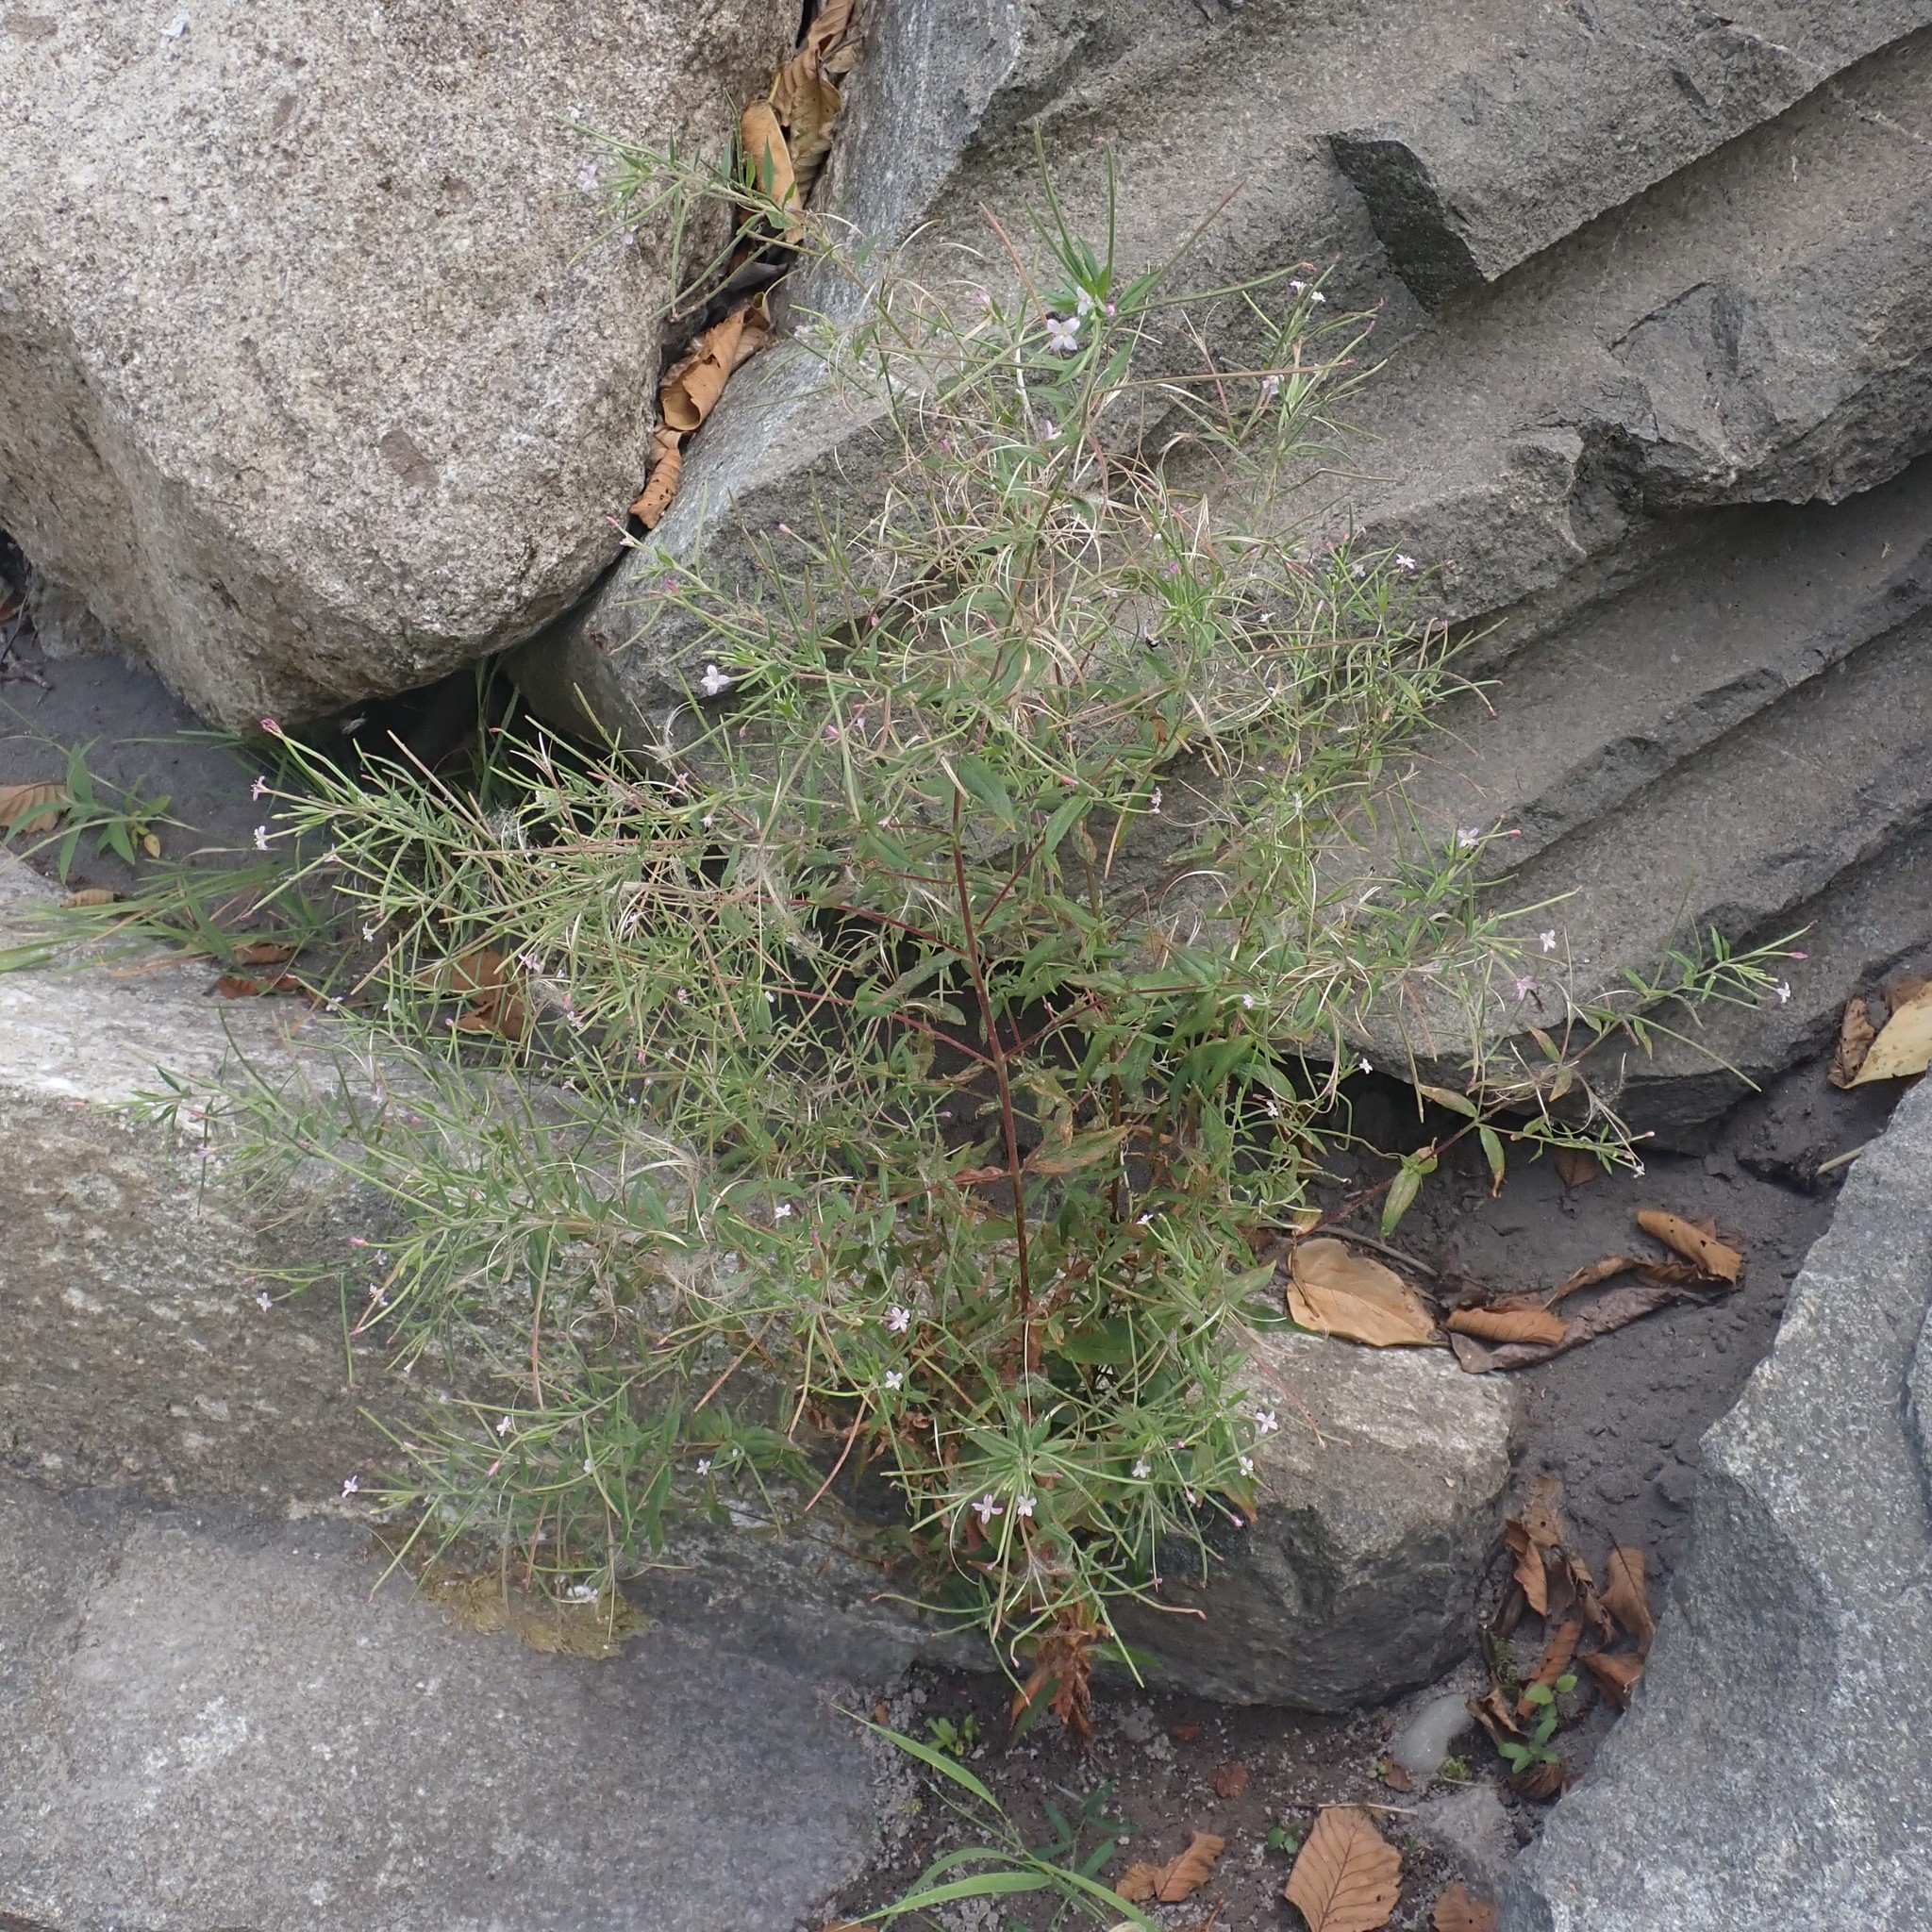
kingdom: Plantae
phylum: Tracheophyta
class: Magnoliopsida
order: Myrtales
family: Onagraceae
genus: Epilobium
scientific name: Epilobium ciliatum
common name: American willowherb
